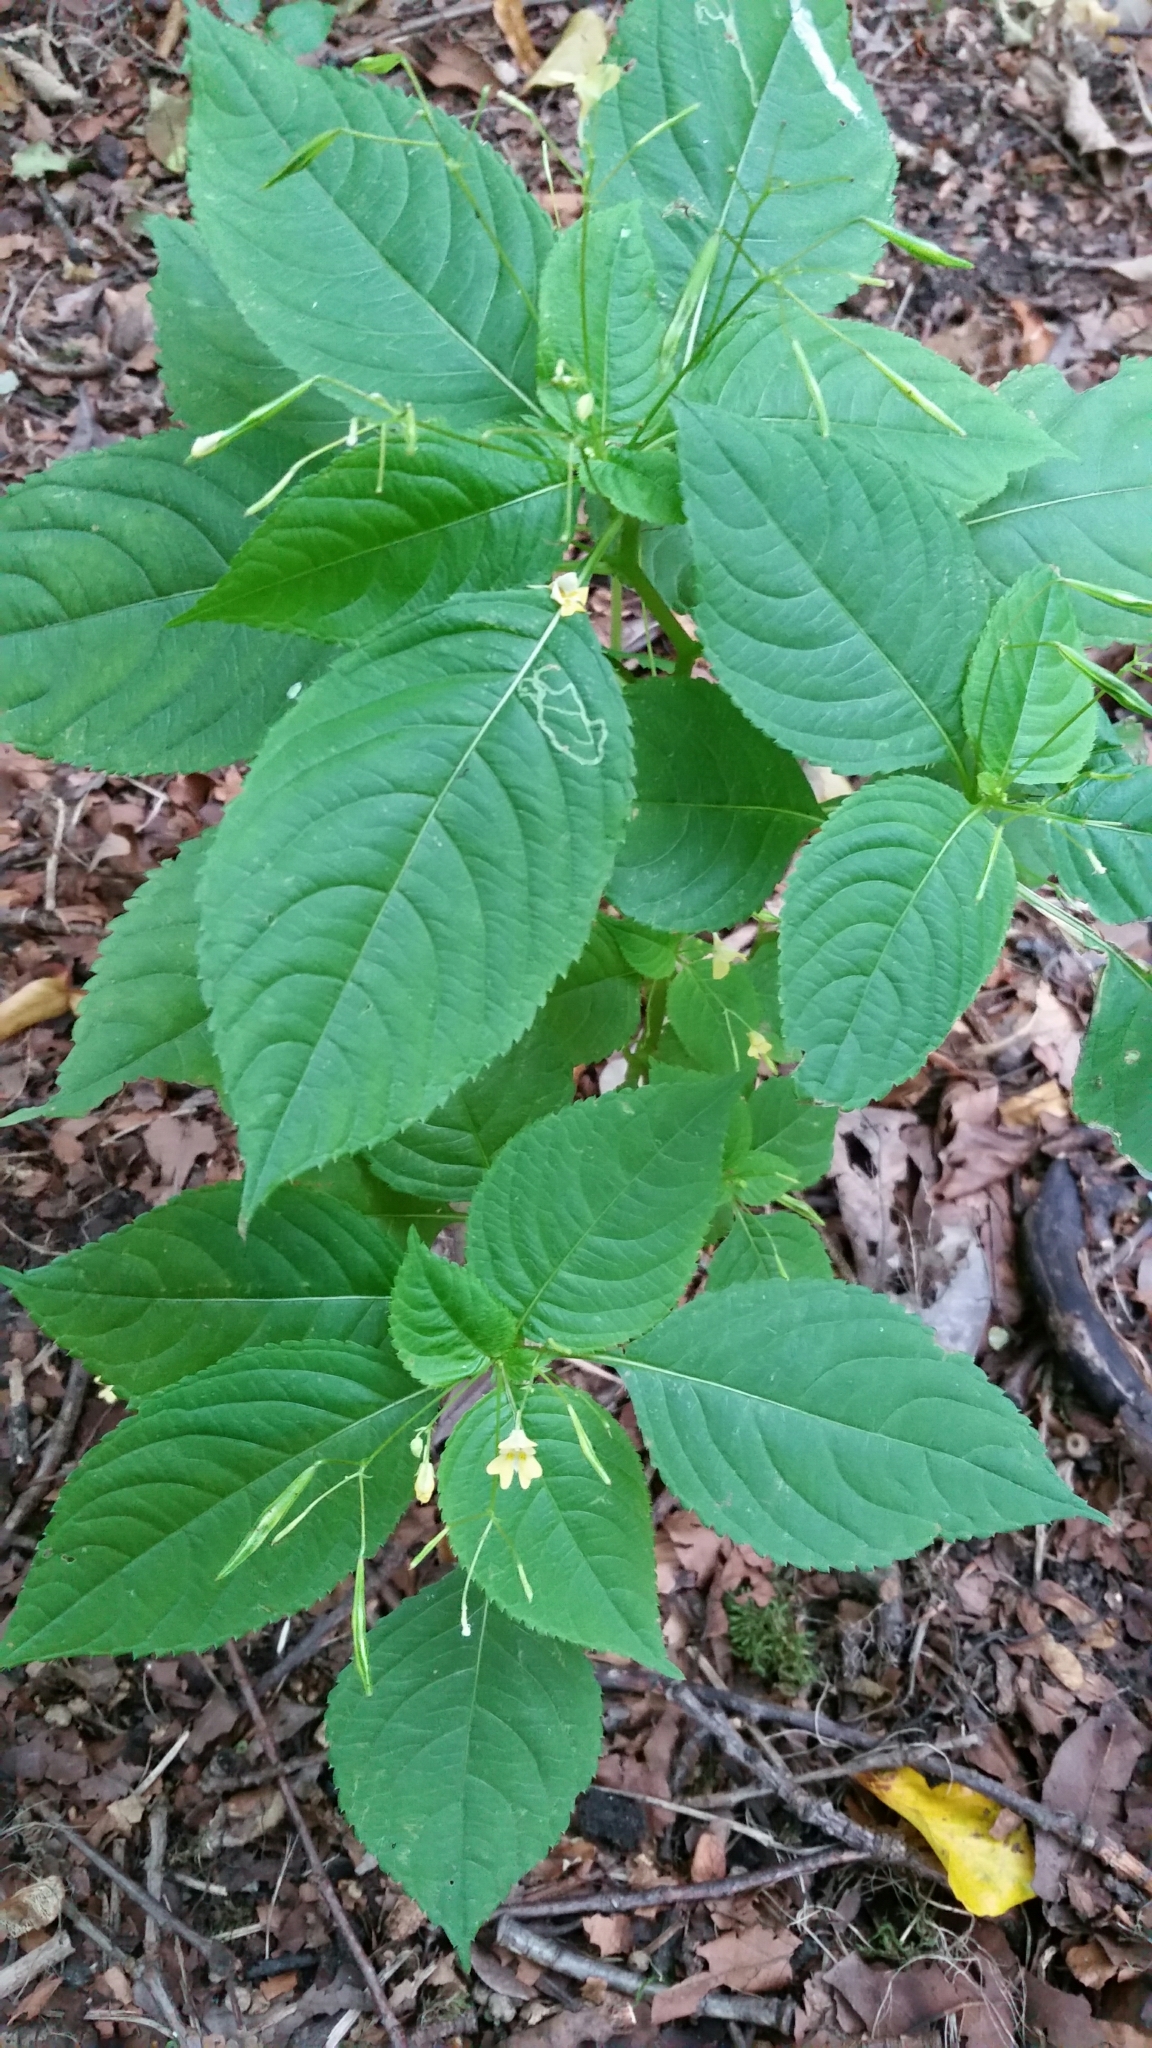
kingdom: Plantae
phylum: Tracheophyta
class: Magnoliopsida
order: Ericales
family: Balsaminaceae
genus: Impatiens
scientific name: Impatiens parviflora
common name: Small balsam
